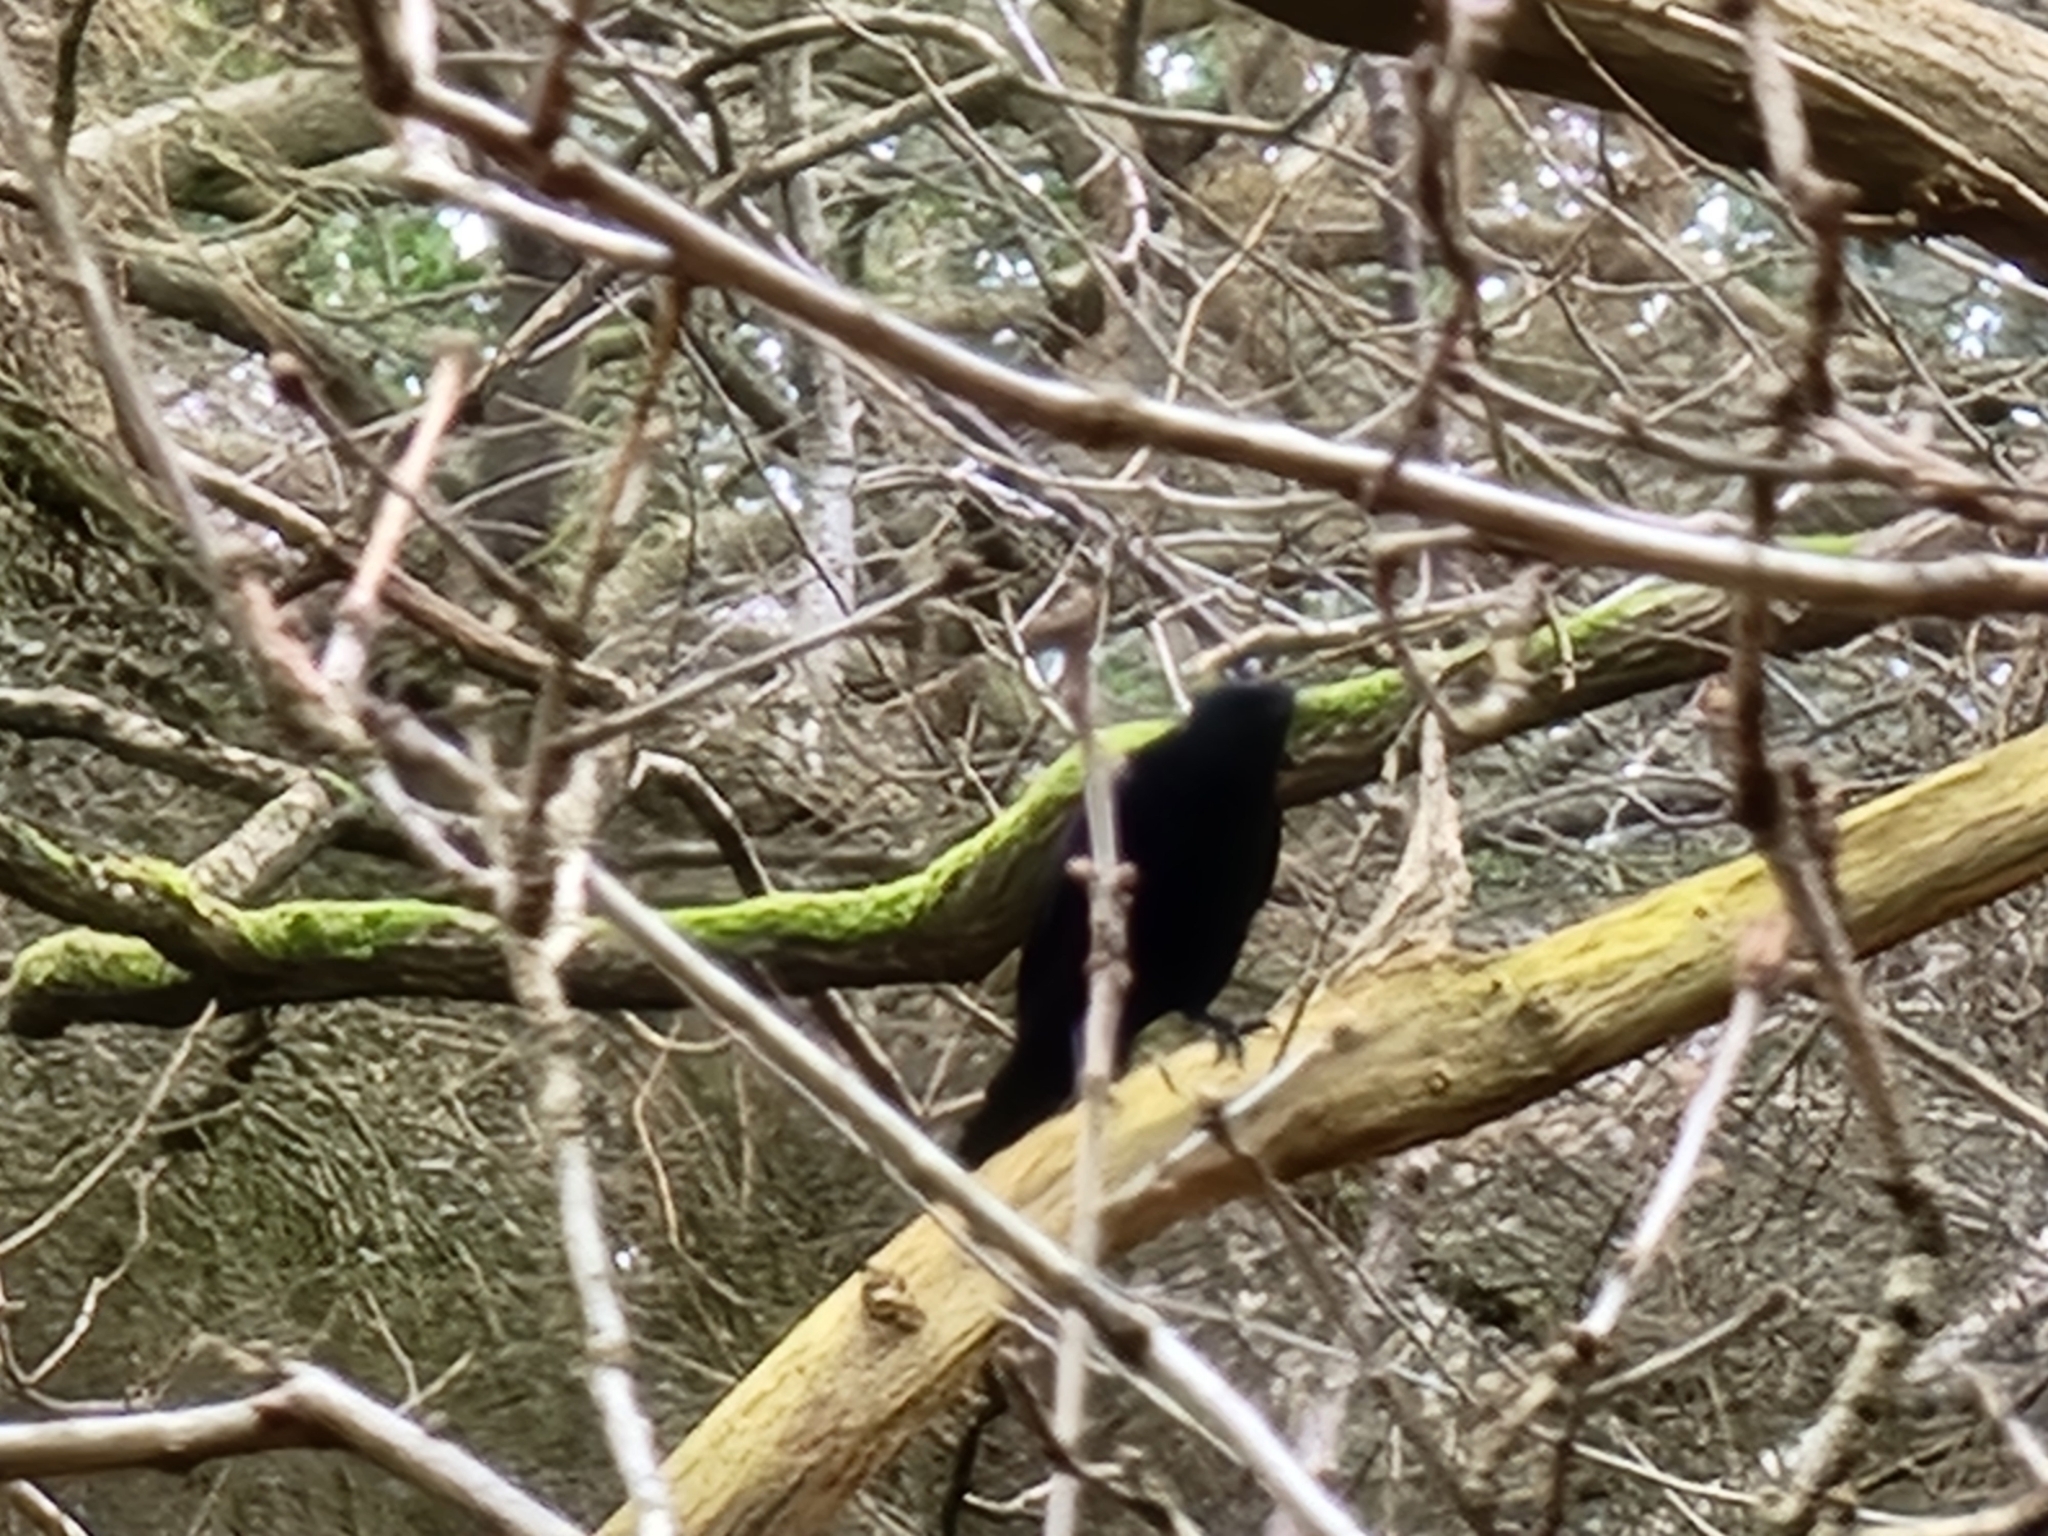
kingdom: Animalia
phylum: Chordata
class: Aves
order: Passeriformes
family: Corvidae
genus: Corvus
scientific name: Corvus corone
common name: Carrion crow
